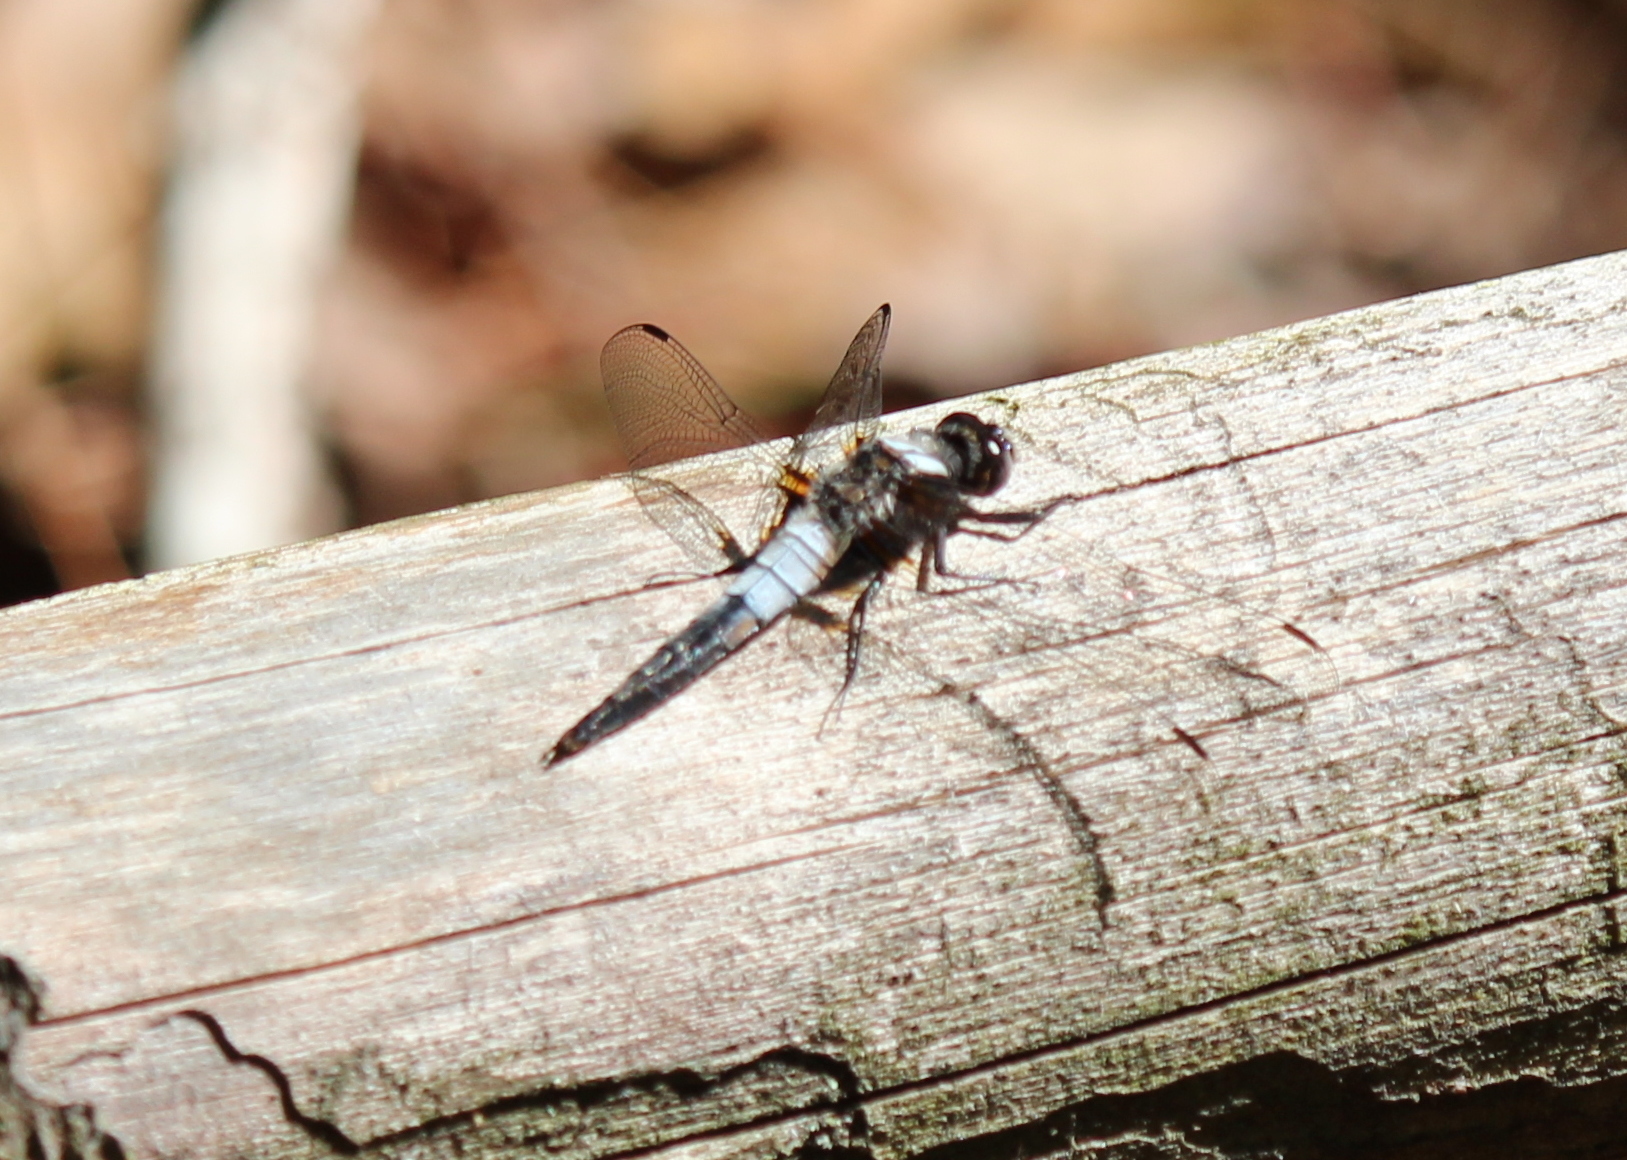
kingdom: Animalia
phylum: Arthropoda
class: Insecta
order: Odonata
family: Libellulidae
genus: Ladona
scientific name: Ladona julia
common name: Chalk-fronted corporal
